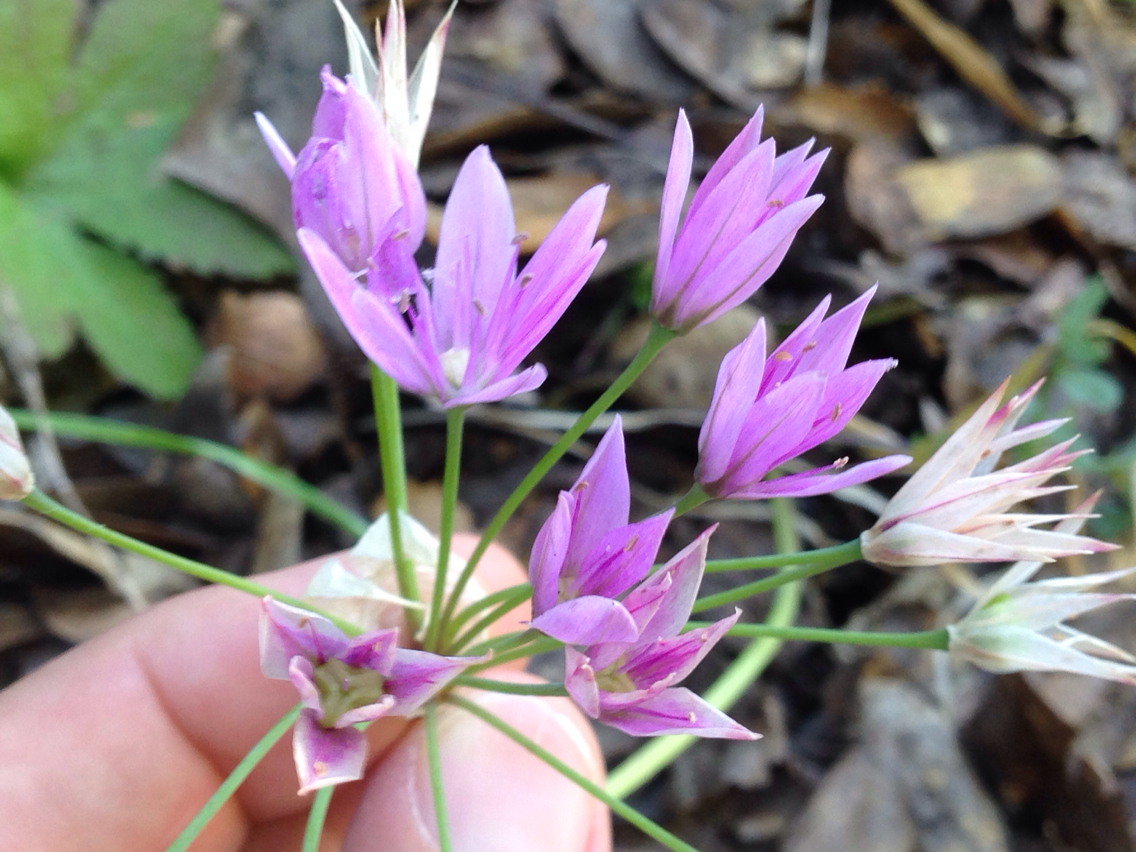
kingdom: Plantae
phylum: Tracheophyta
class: Liliopsida
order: Asparagales
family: Amaryllidaceae
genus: Allium
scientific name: Allium unifolium
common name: American garlic
